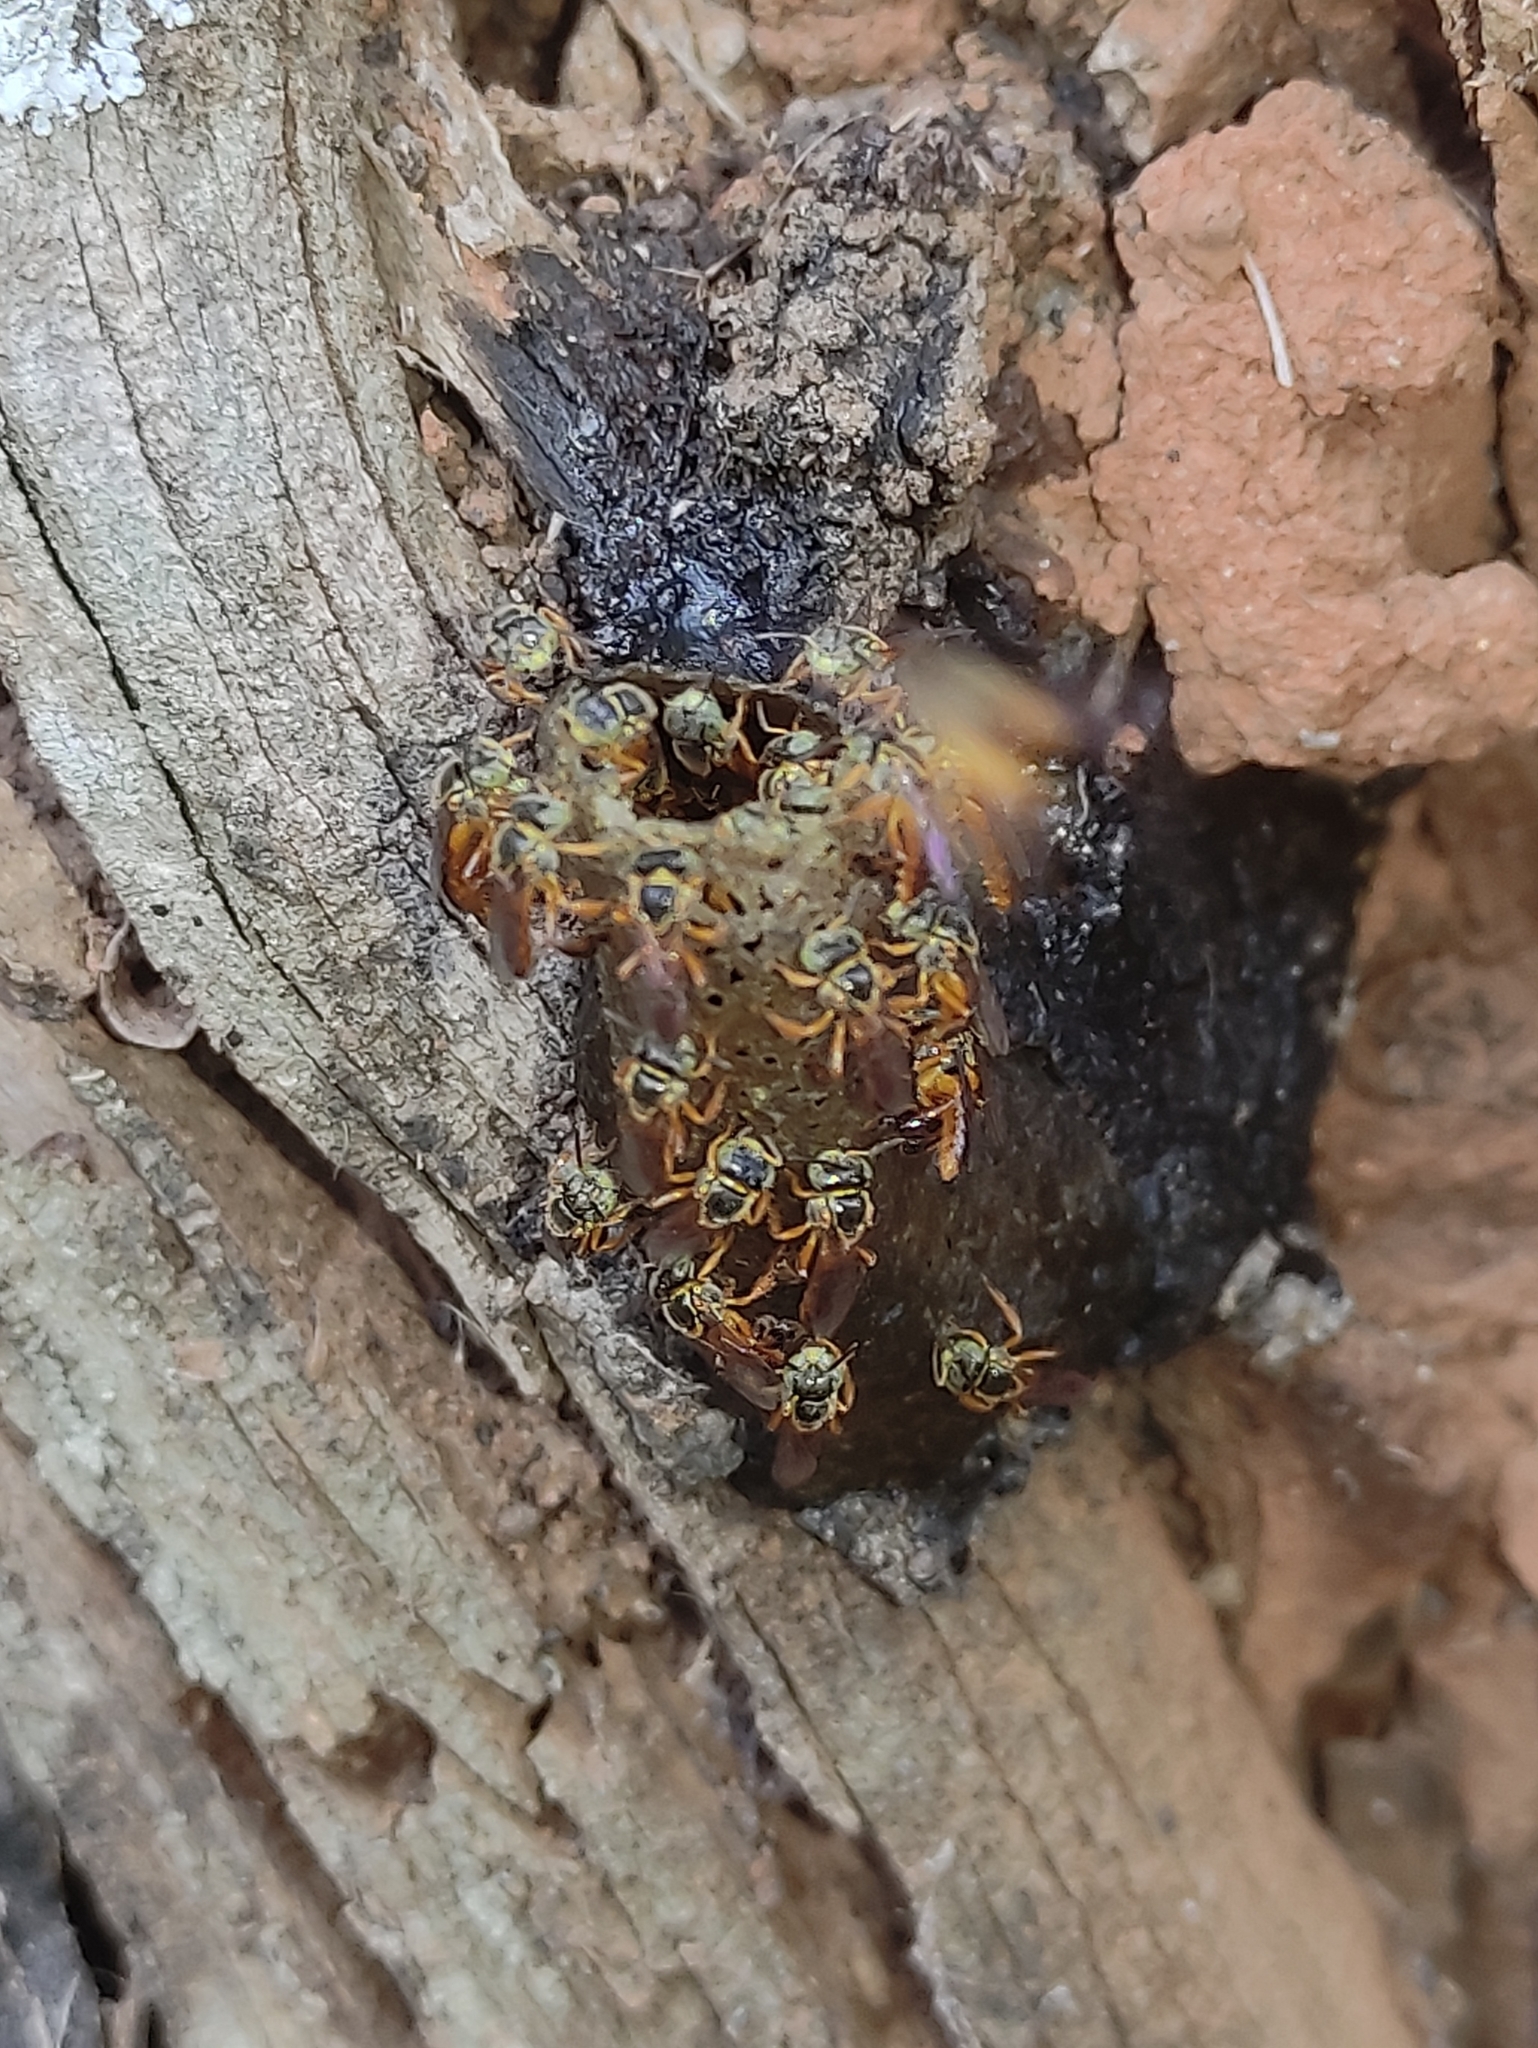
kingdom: Animalia
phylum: Arthropoda
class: Insecta
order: Hymenoptera
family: Apidae
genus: Tetragonisca
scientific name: Tetragonisca angustula
